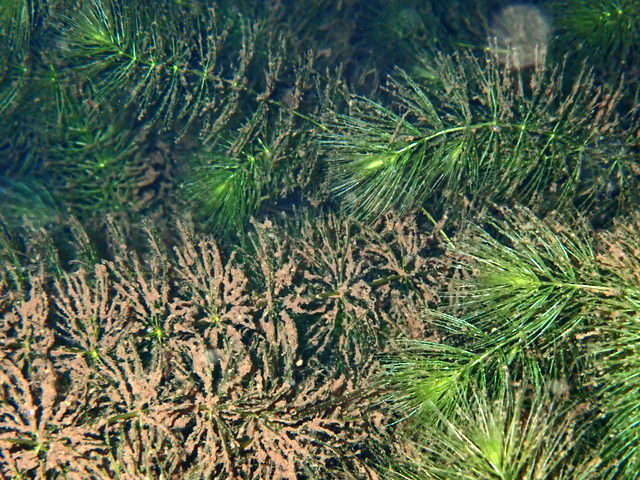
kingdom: Plantae
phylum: Tracheophyta
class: Magnoliopsida
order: Ceratophyllales
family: Ceratophyllaceae
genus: Ceratophyllum
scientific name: Ceratophyllum demersum
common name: Rigid hornwort
